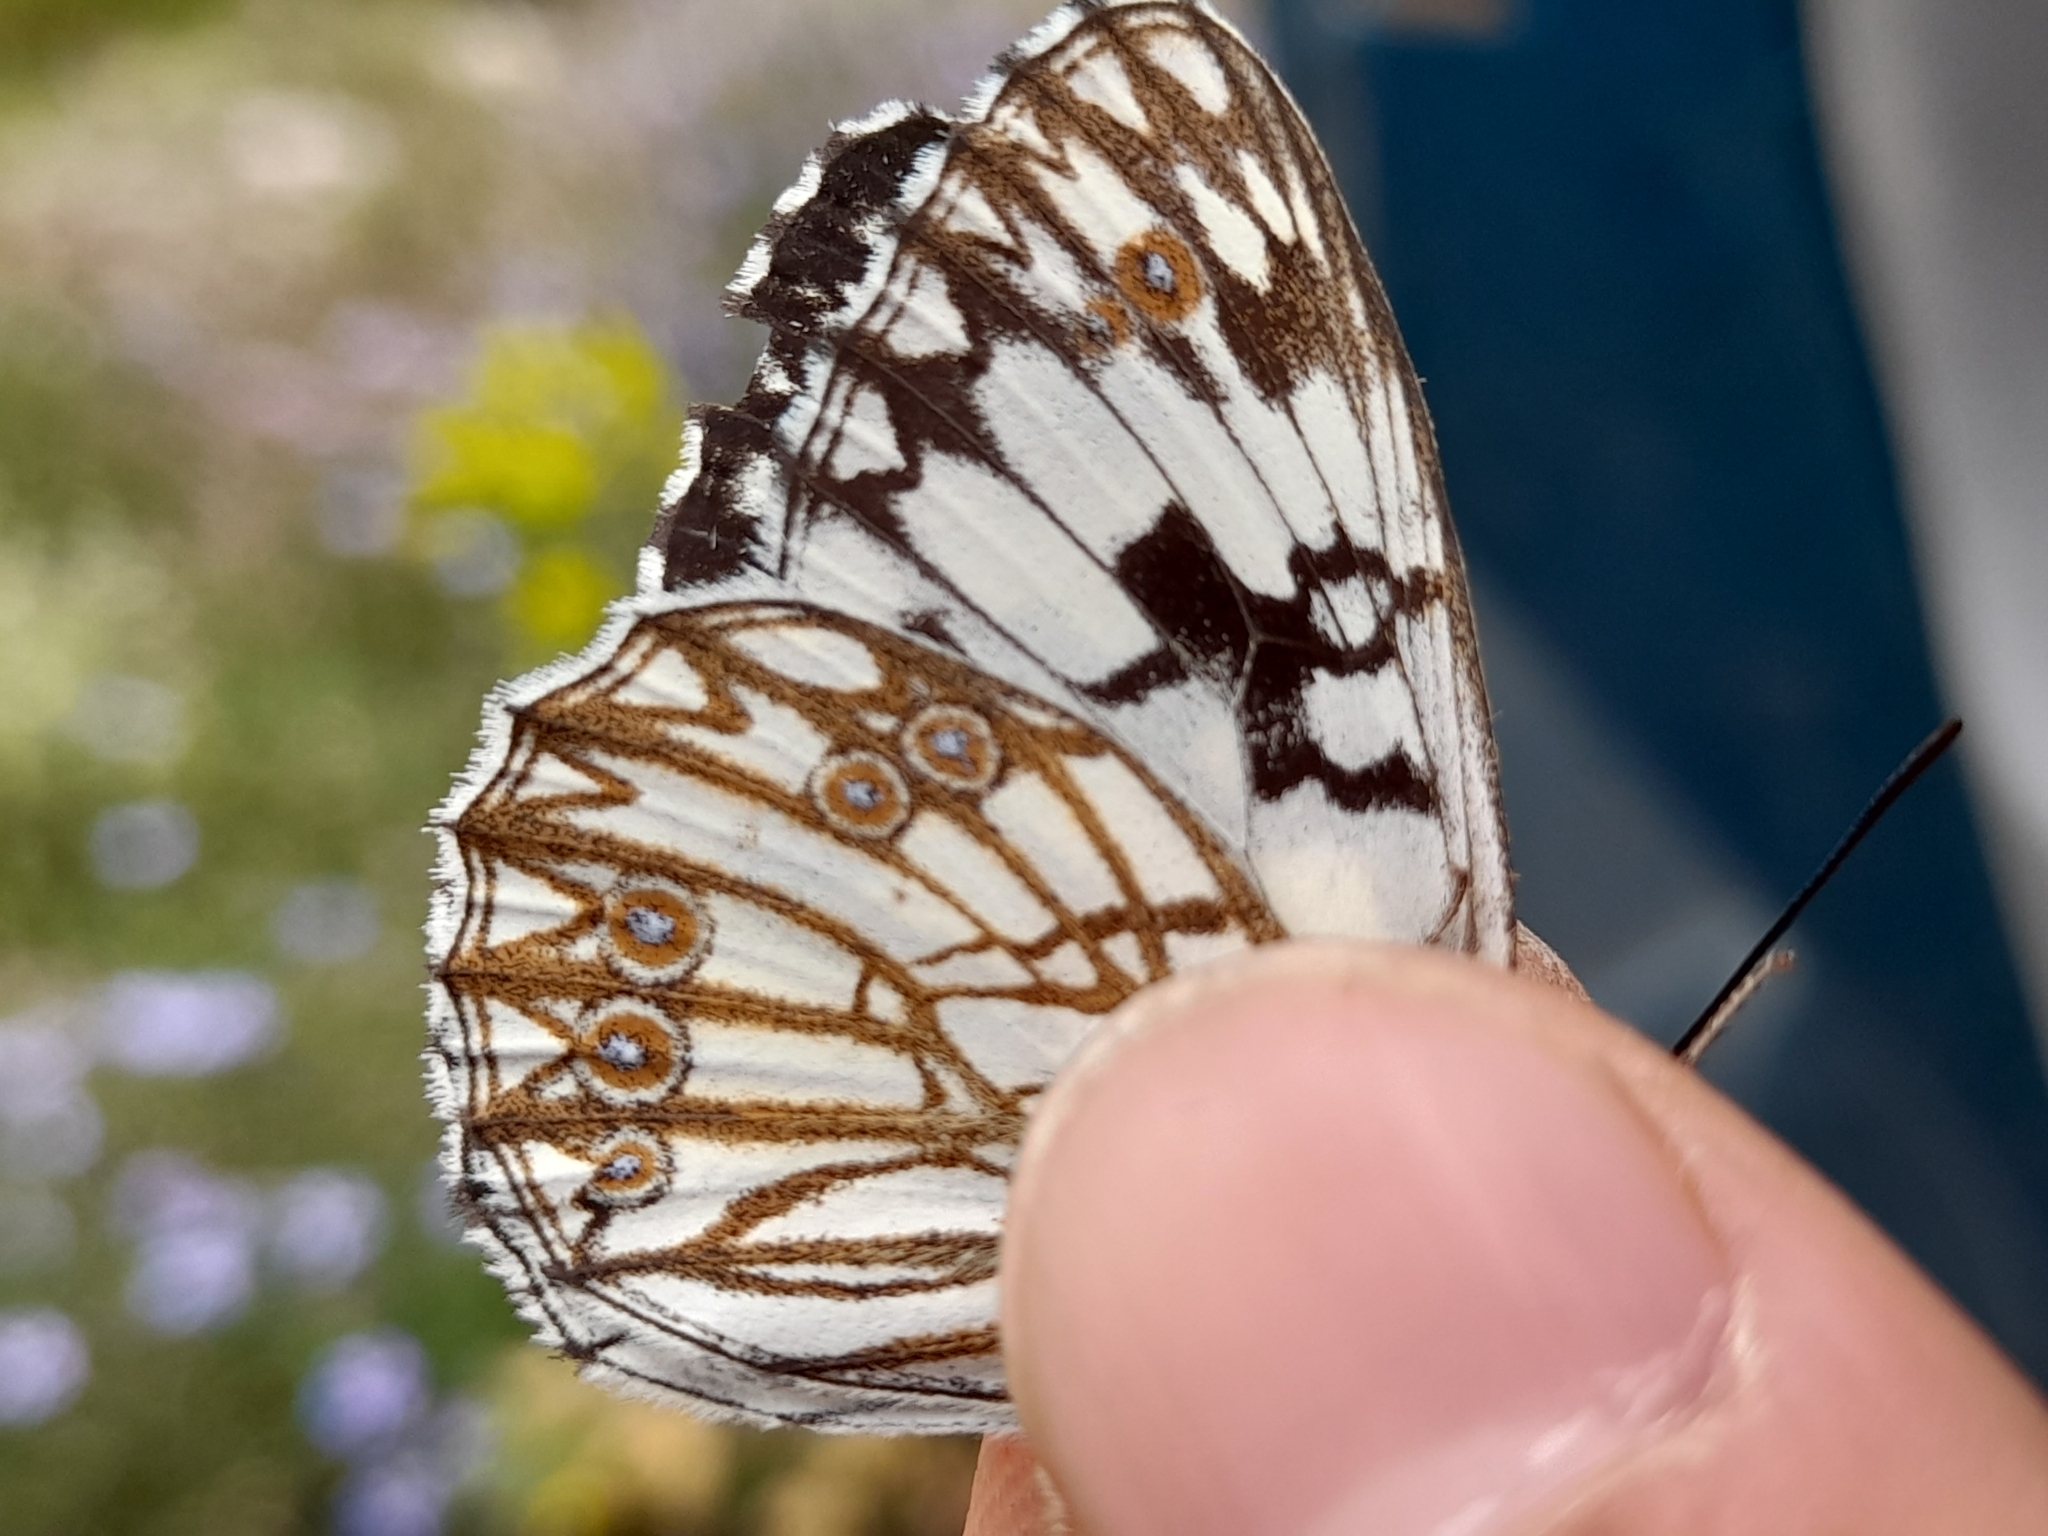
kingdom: Animalia
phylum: Arthropoda
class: Insecta
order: Lepidoptera
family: Nymphalidae
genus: Melanargia
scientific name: Melanargia occitanica
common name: Western marbled white
